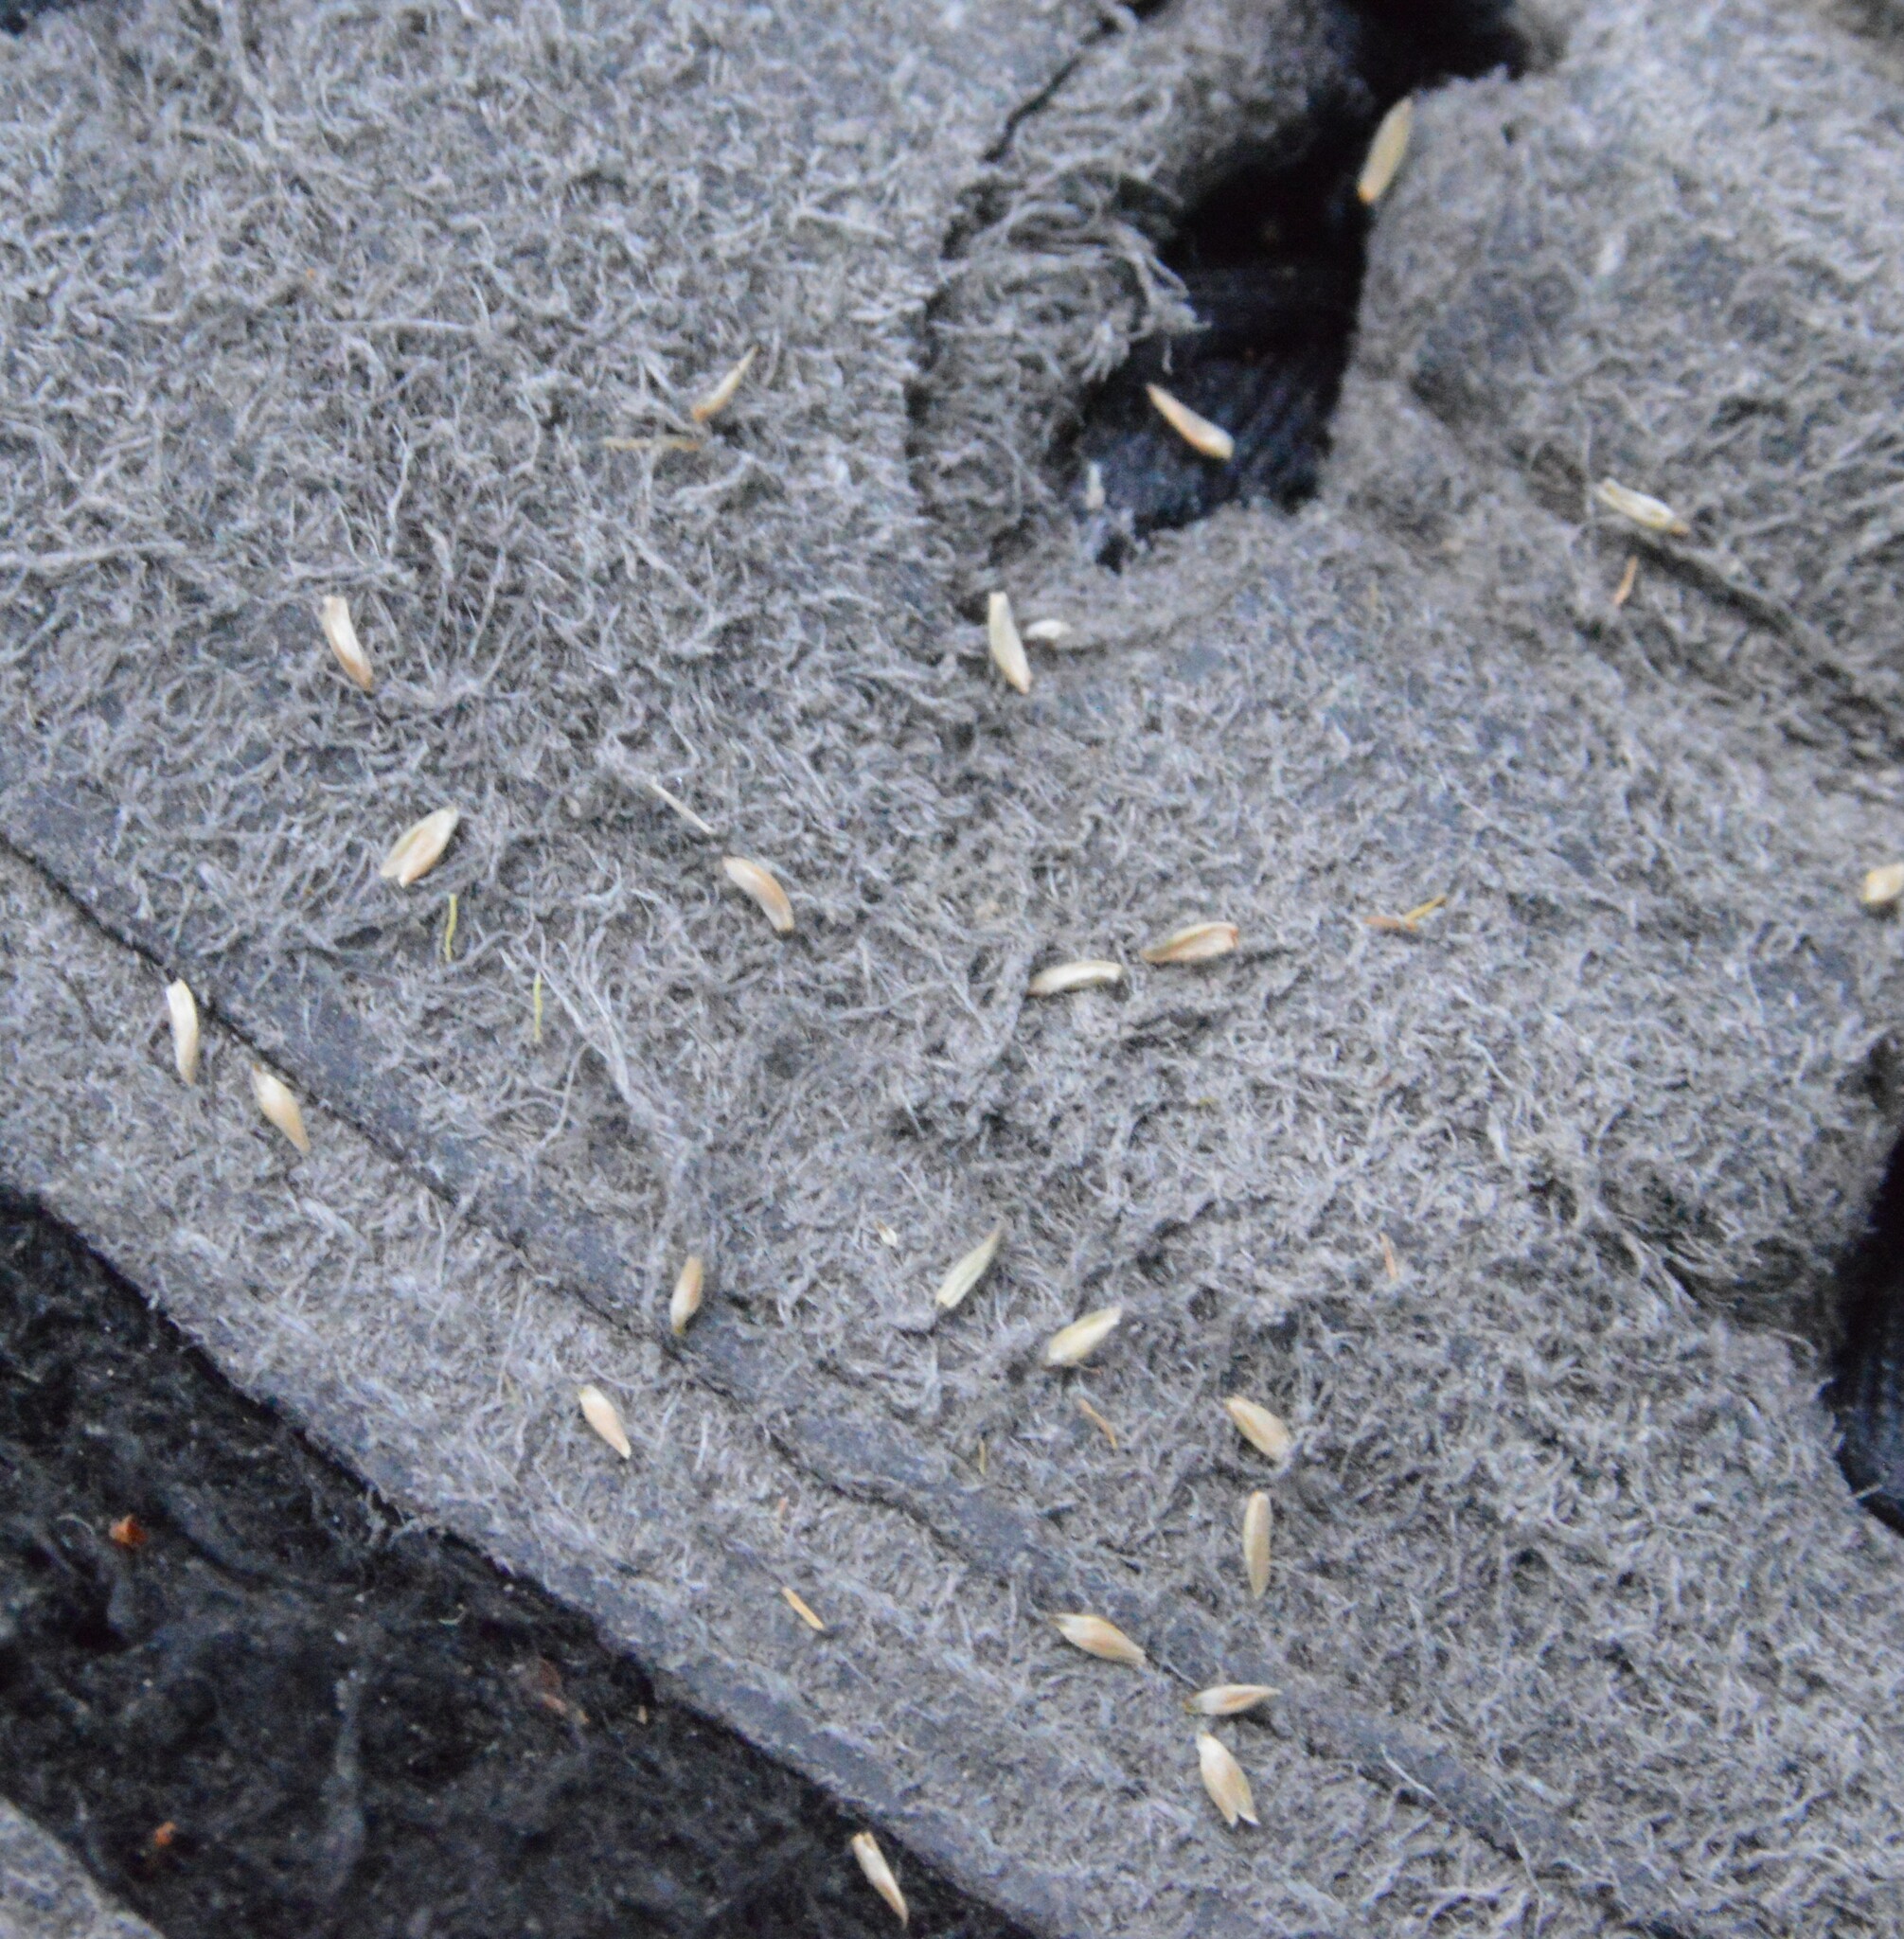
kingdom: Plantae
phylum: Tracheophyta
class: Liliopsida
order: Poales
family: Cyperaceae
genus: Cyperus
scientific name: Cyperus virens
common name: Green flatsedge
